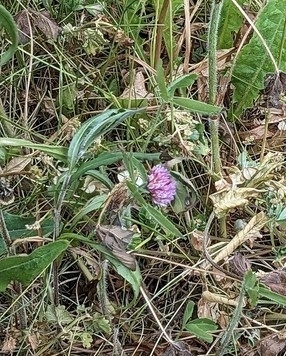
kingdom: Plantae
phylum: Tracheophyta
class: Magnoliopsida
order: Fabales
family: Fabaceae
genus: Trifolium
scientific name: Trifolium pratense
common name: Red clover
